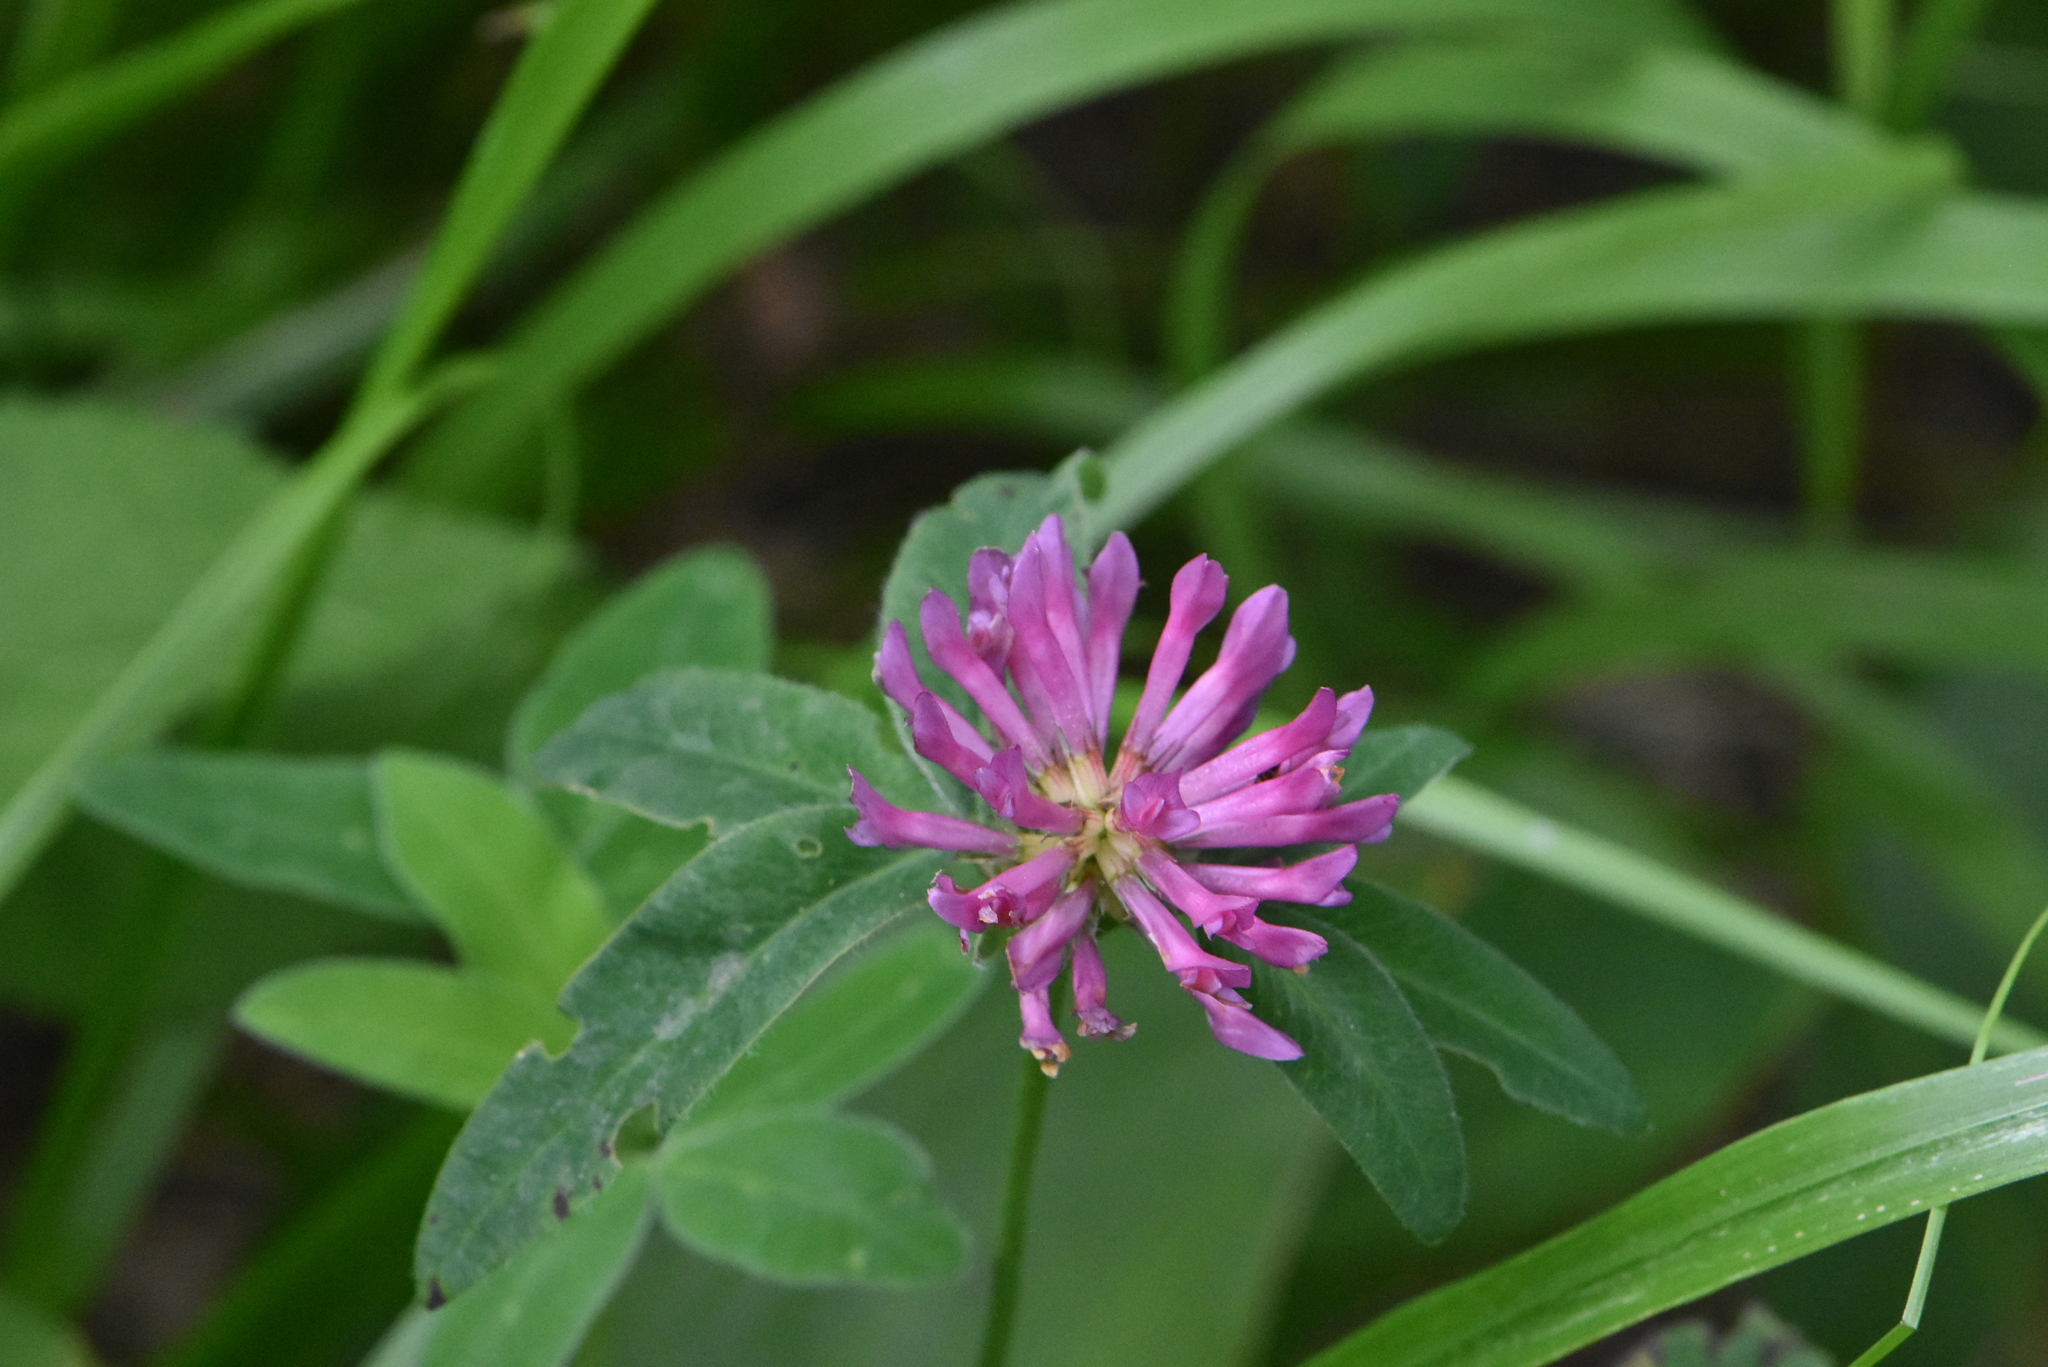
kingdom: Plantae
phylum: Tracheophyta
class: Magnoliopsida
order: Fabales
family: Fabaceae
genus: Trifolium
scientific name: Trifolium medium
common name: Zigzag clover
